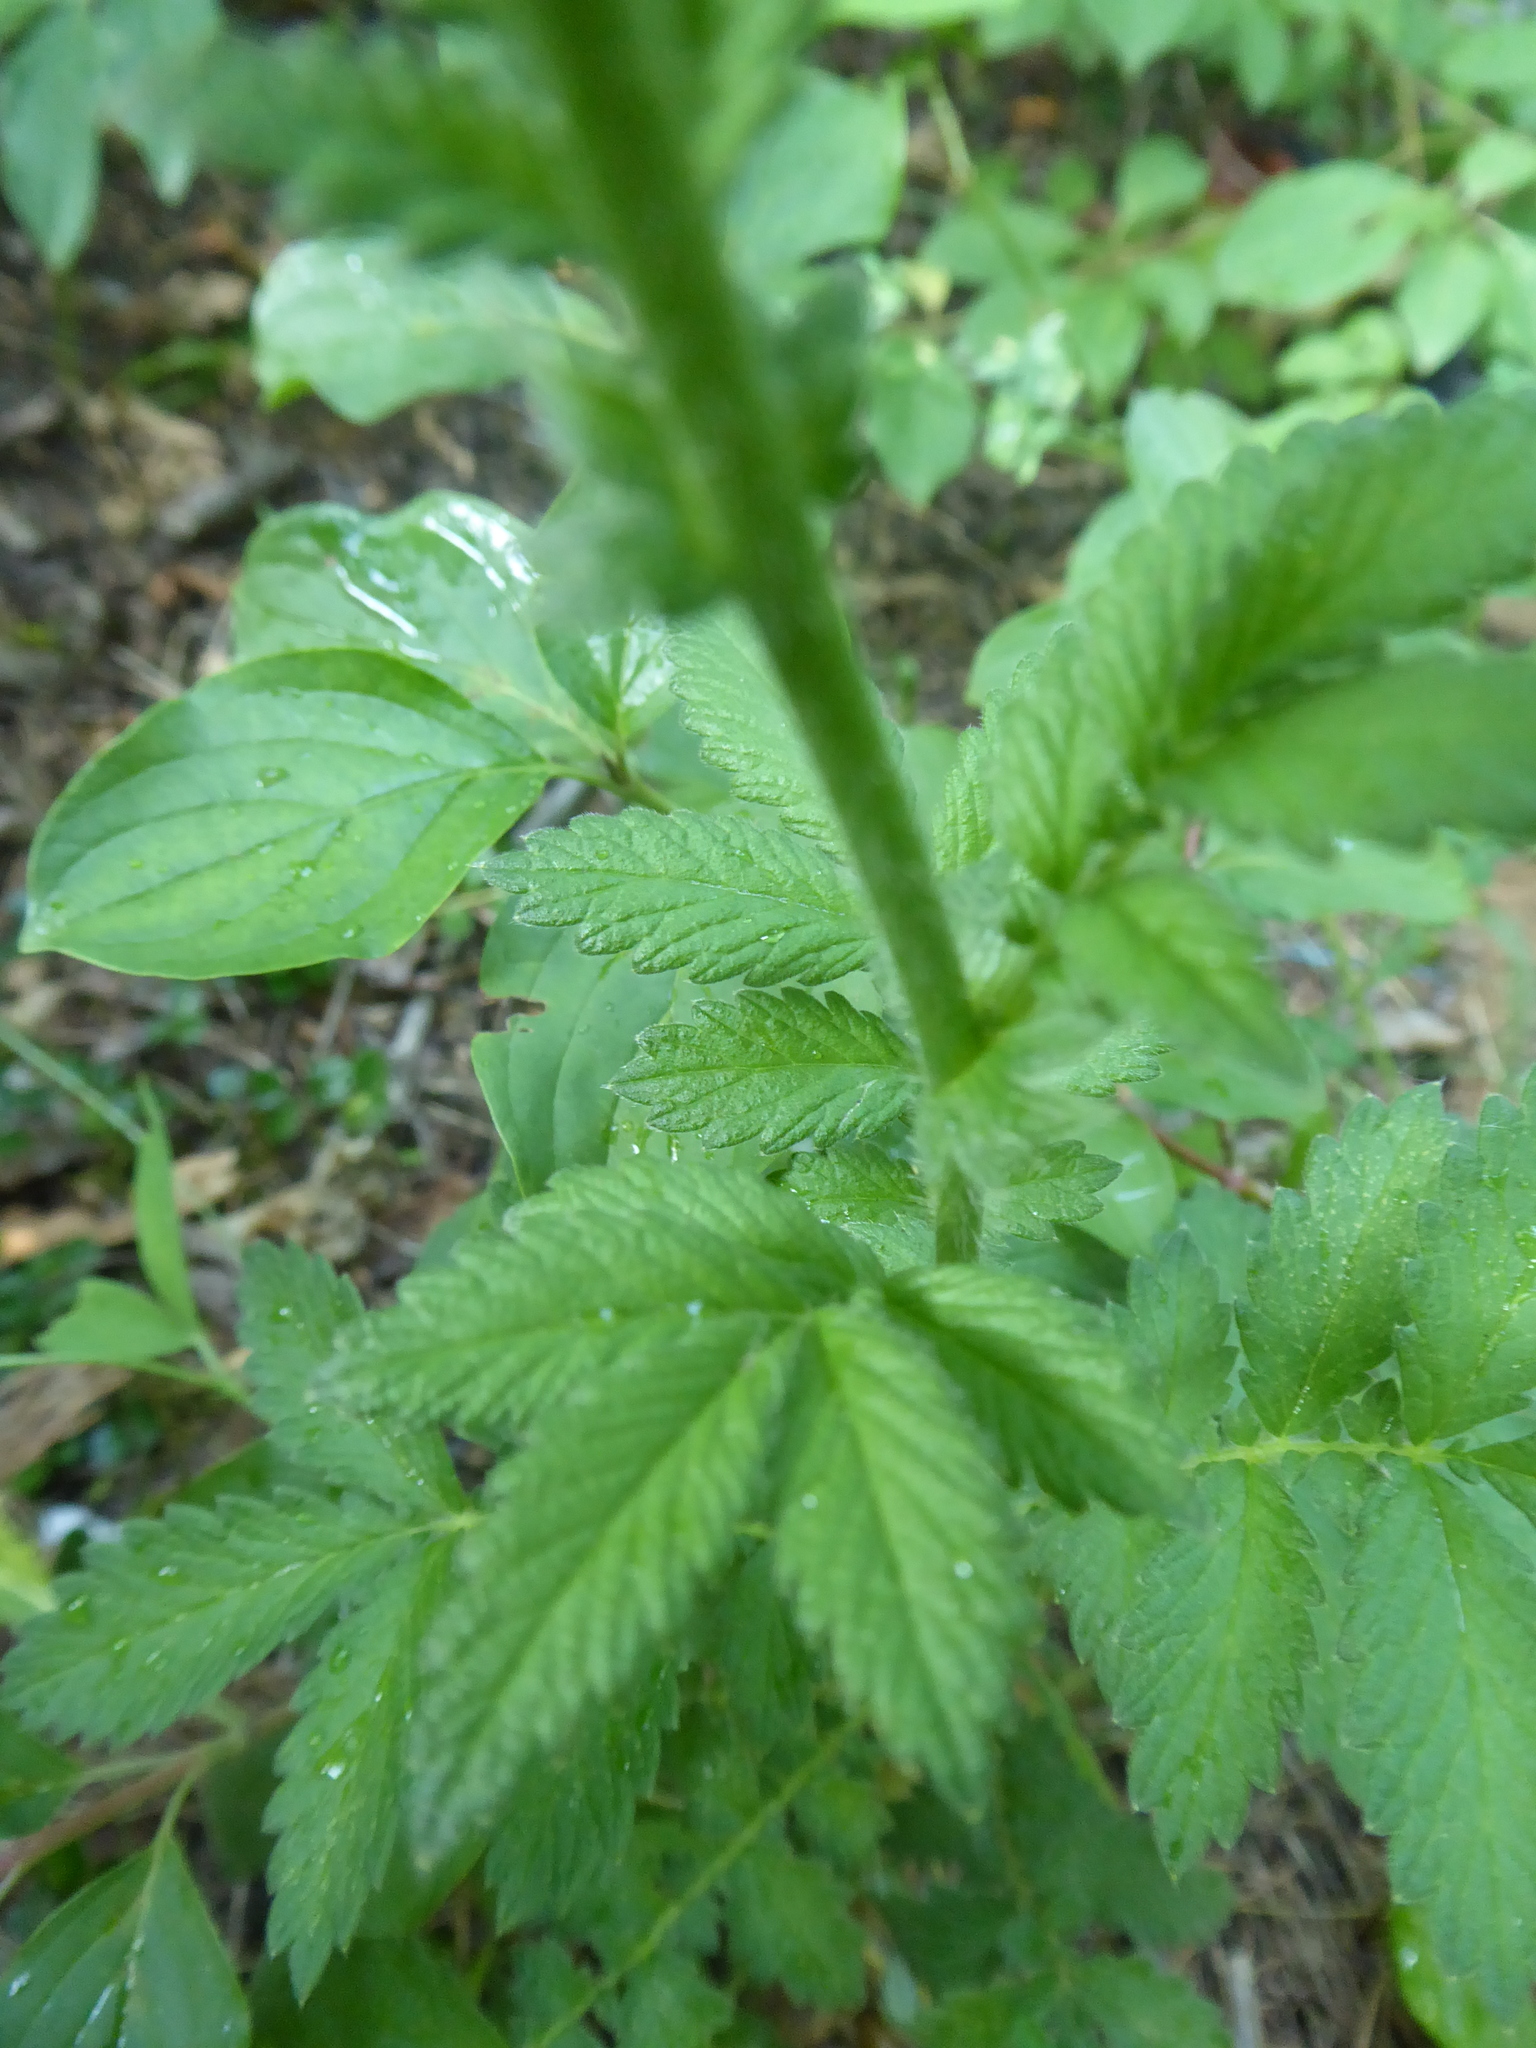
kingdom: Plantae
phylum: Tracheophyta
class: Magnoliopsida
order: Rosales
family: Rosaceae
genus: Agrimonia
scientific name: Agrimonia eupatoria
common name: Agrimony
